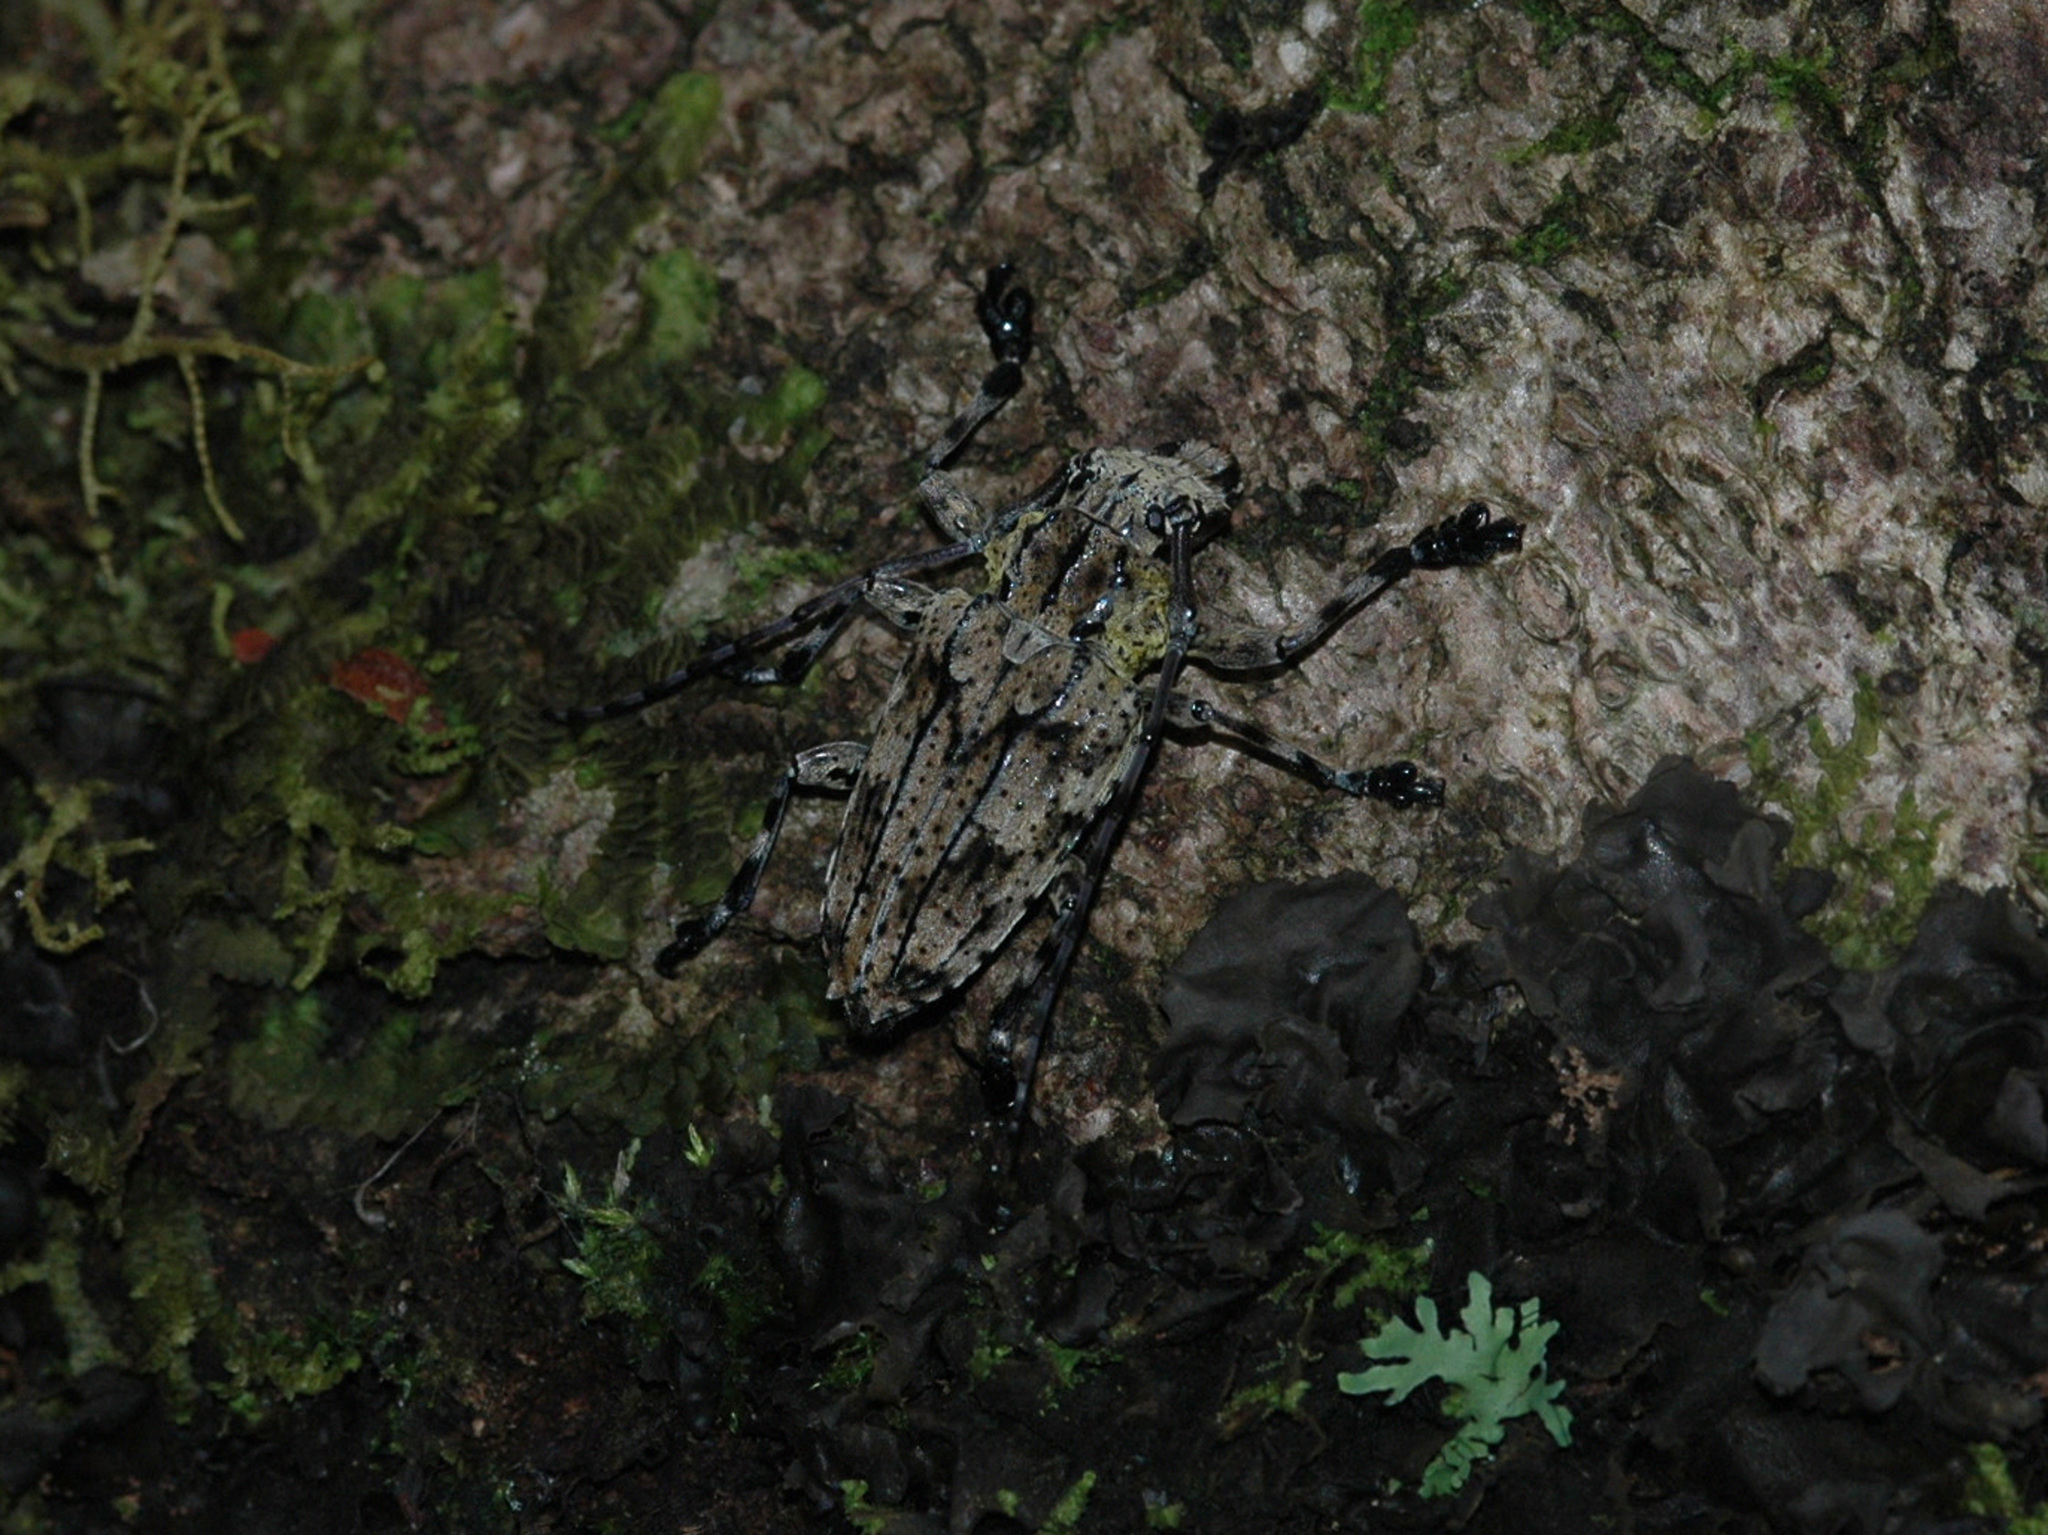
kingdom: Animalia
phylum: Arthropoda
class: Insecta
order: Coleoptera
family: Cerambycidae
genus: Steirastoma
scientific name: Steirastoma breve
